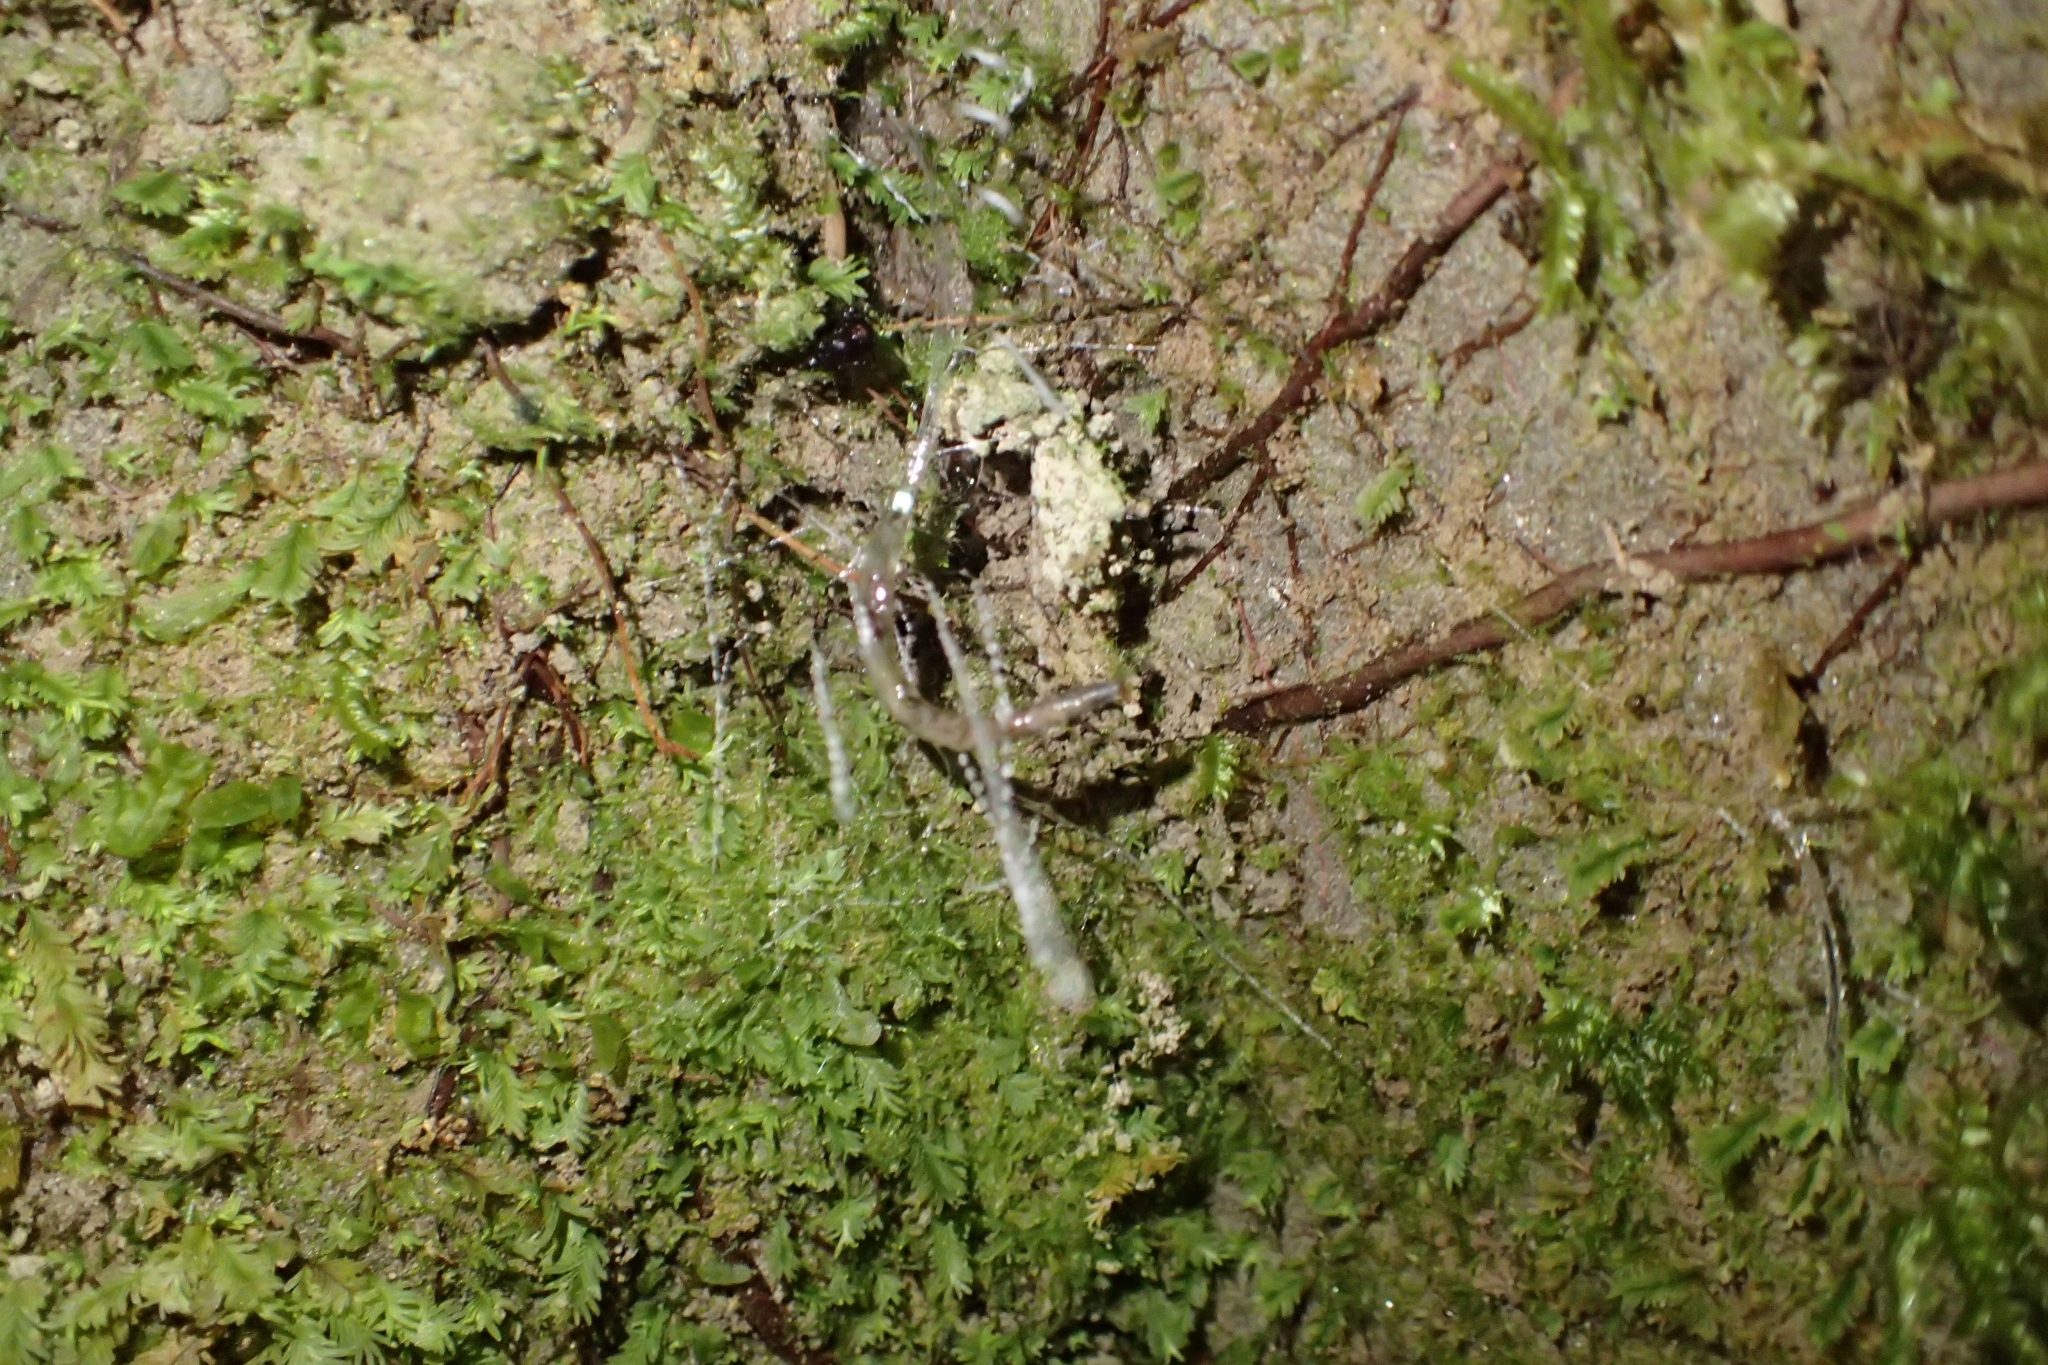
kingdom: Animalia
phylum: Arthropoda
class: Insecta
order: Diptera
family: Keroplatidae
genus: Arachnocampa
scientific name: Arachnocampa luminosa
